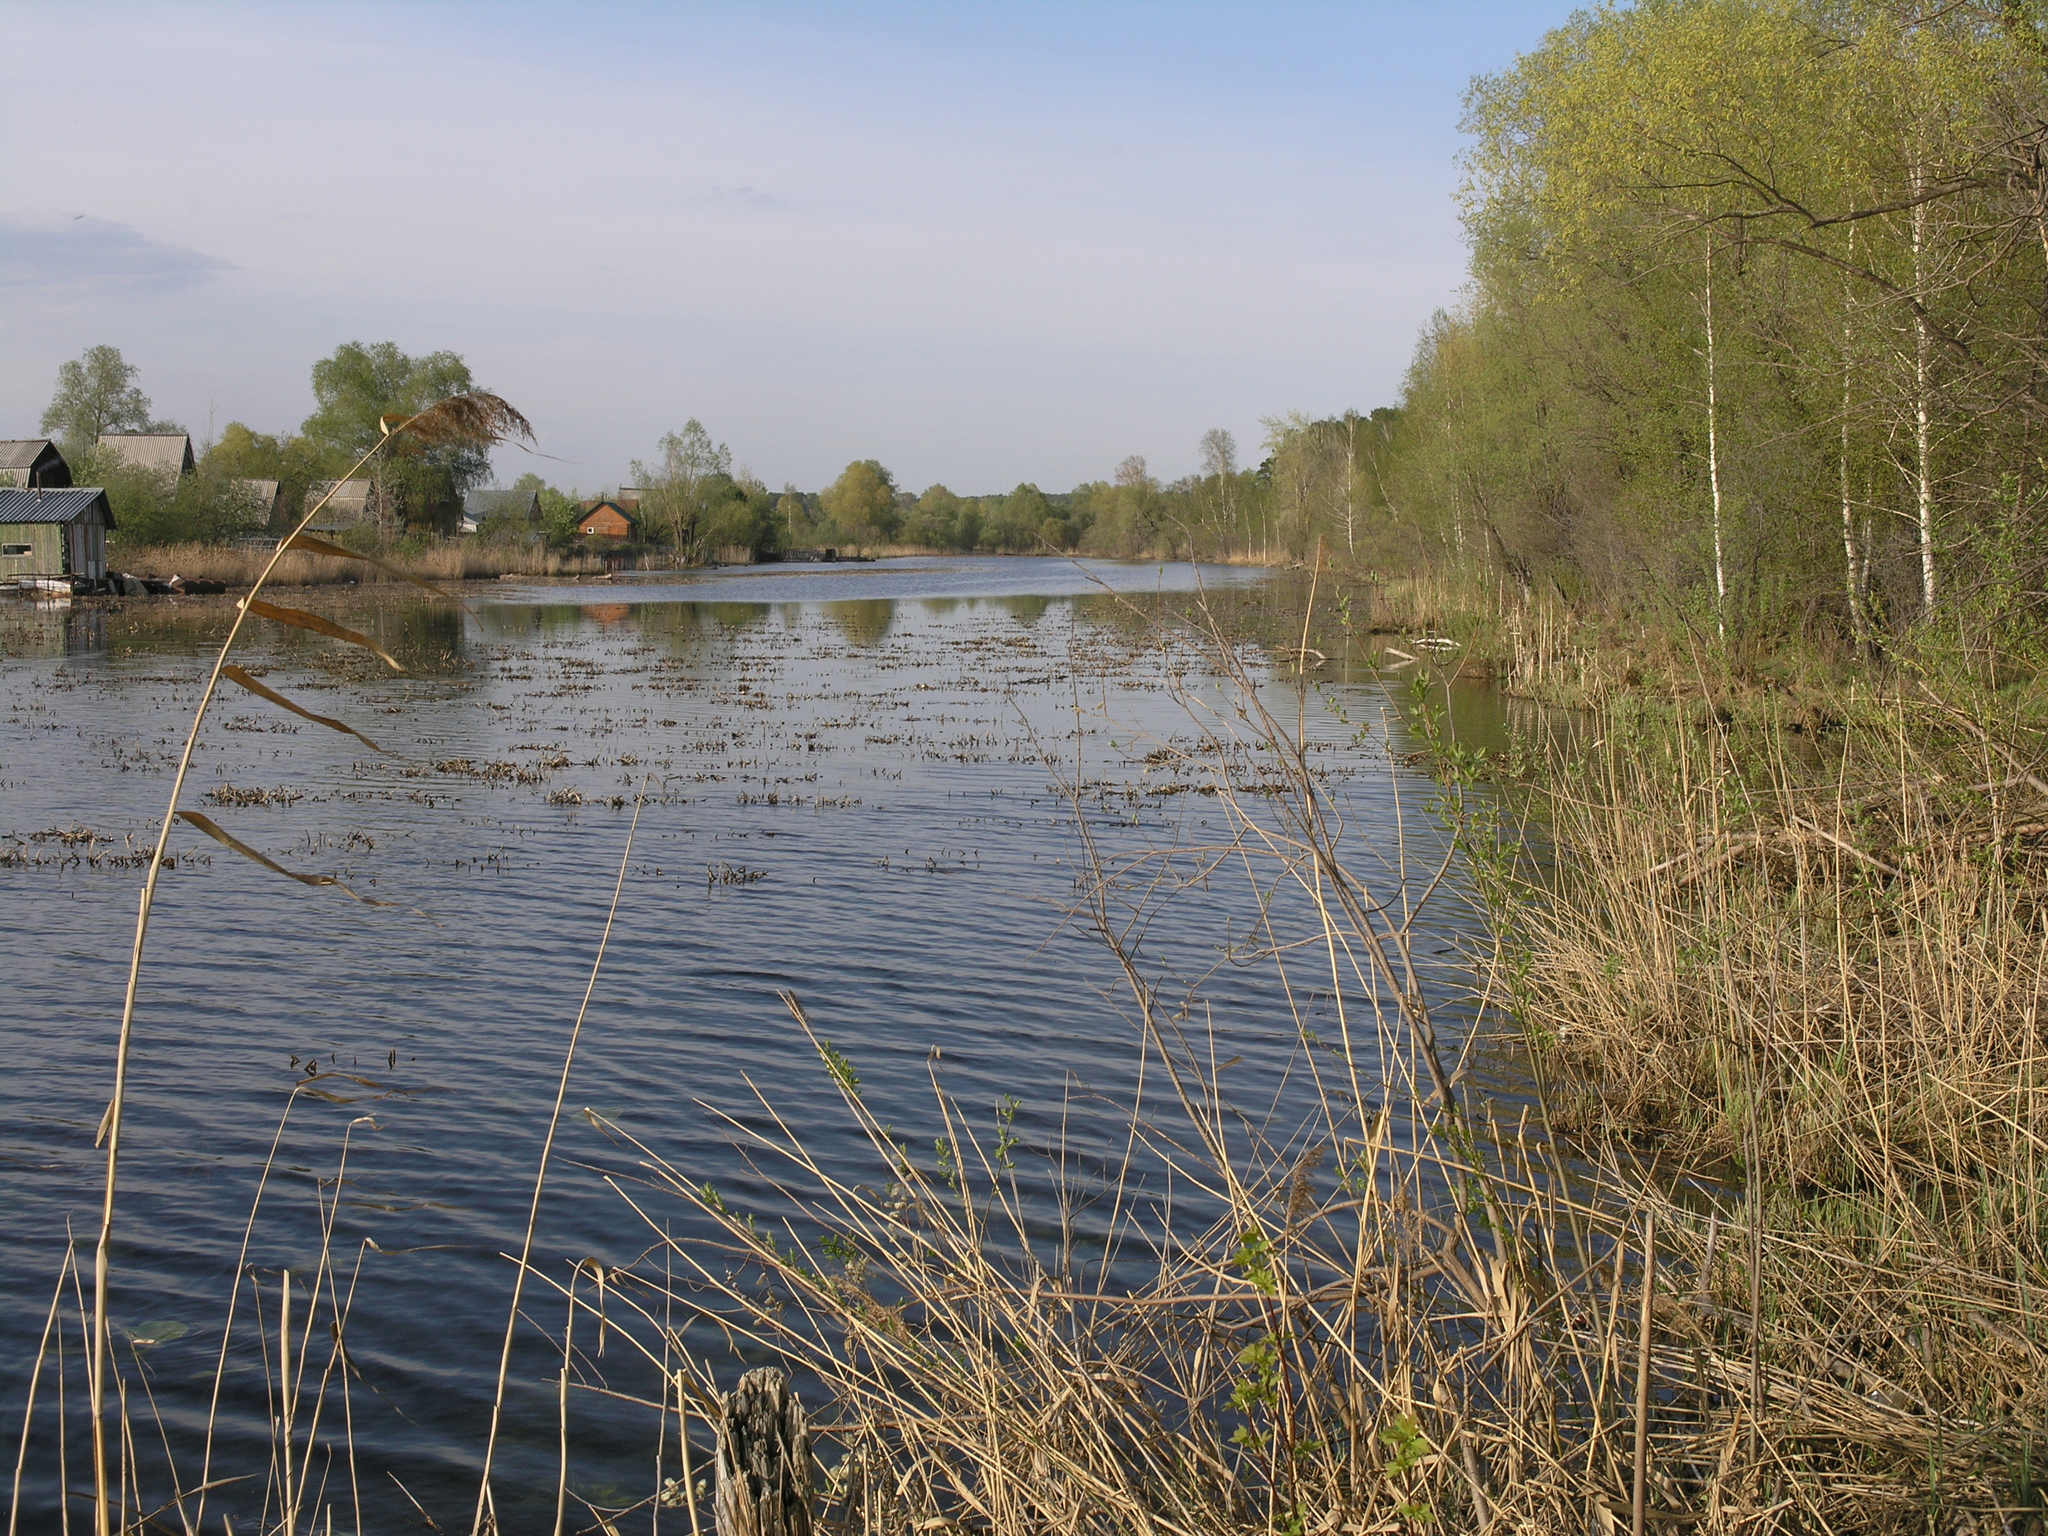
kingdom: Plantae
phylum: Tracheophyta
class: Liliopsida
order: Poales
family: Poaceae
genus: Phragmites
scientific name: Phragmites australis
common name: Common reed
